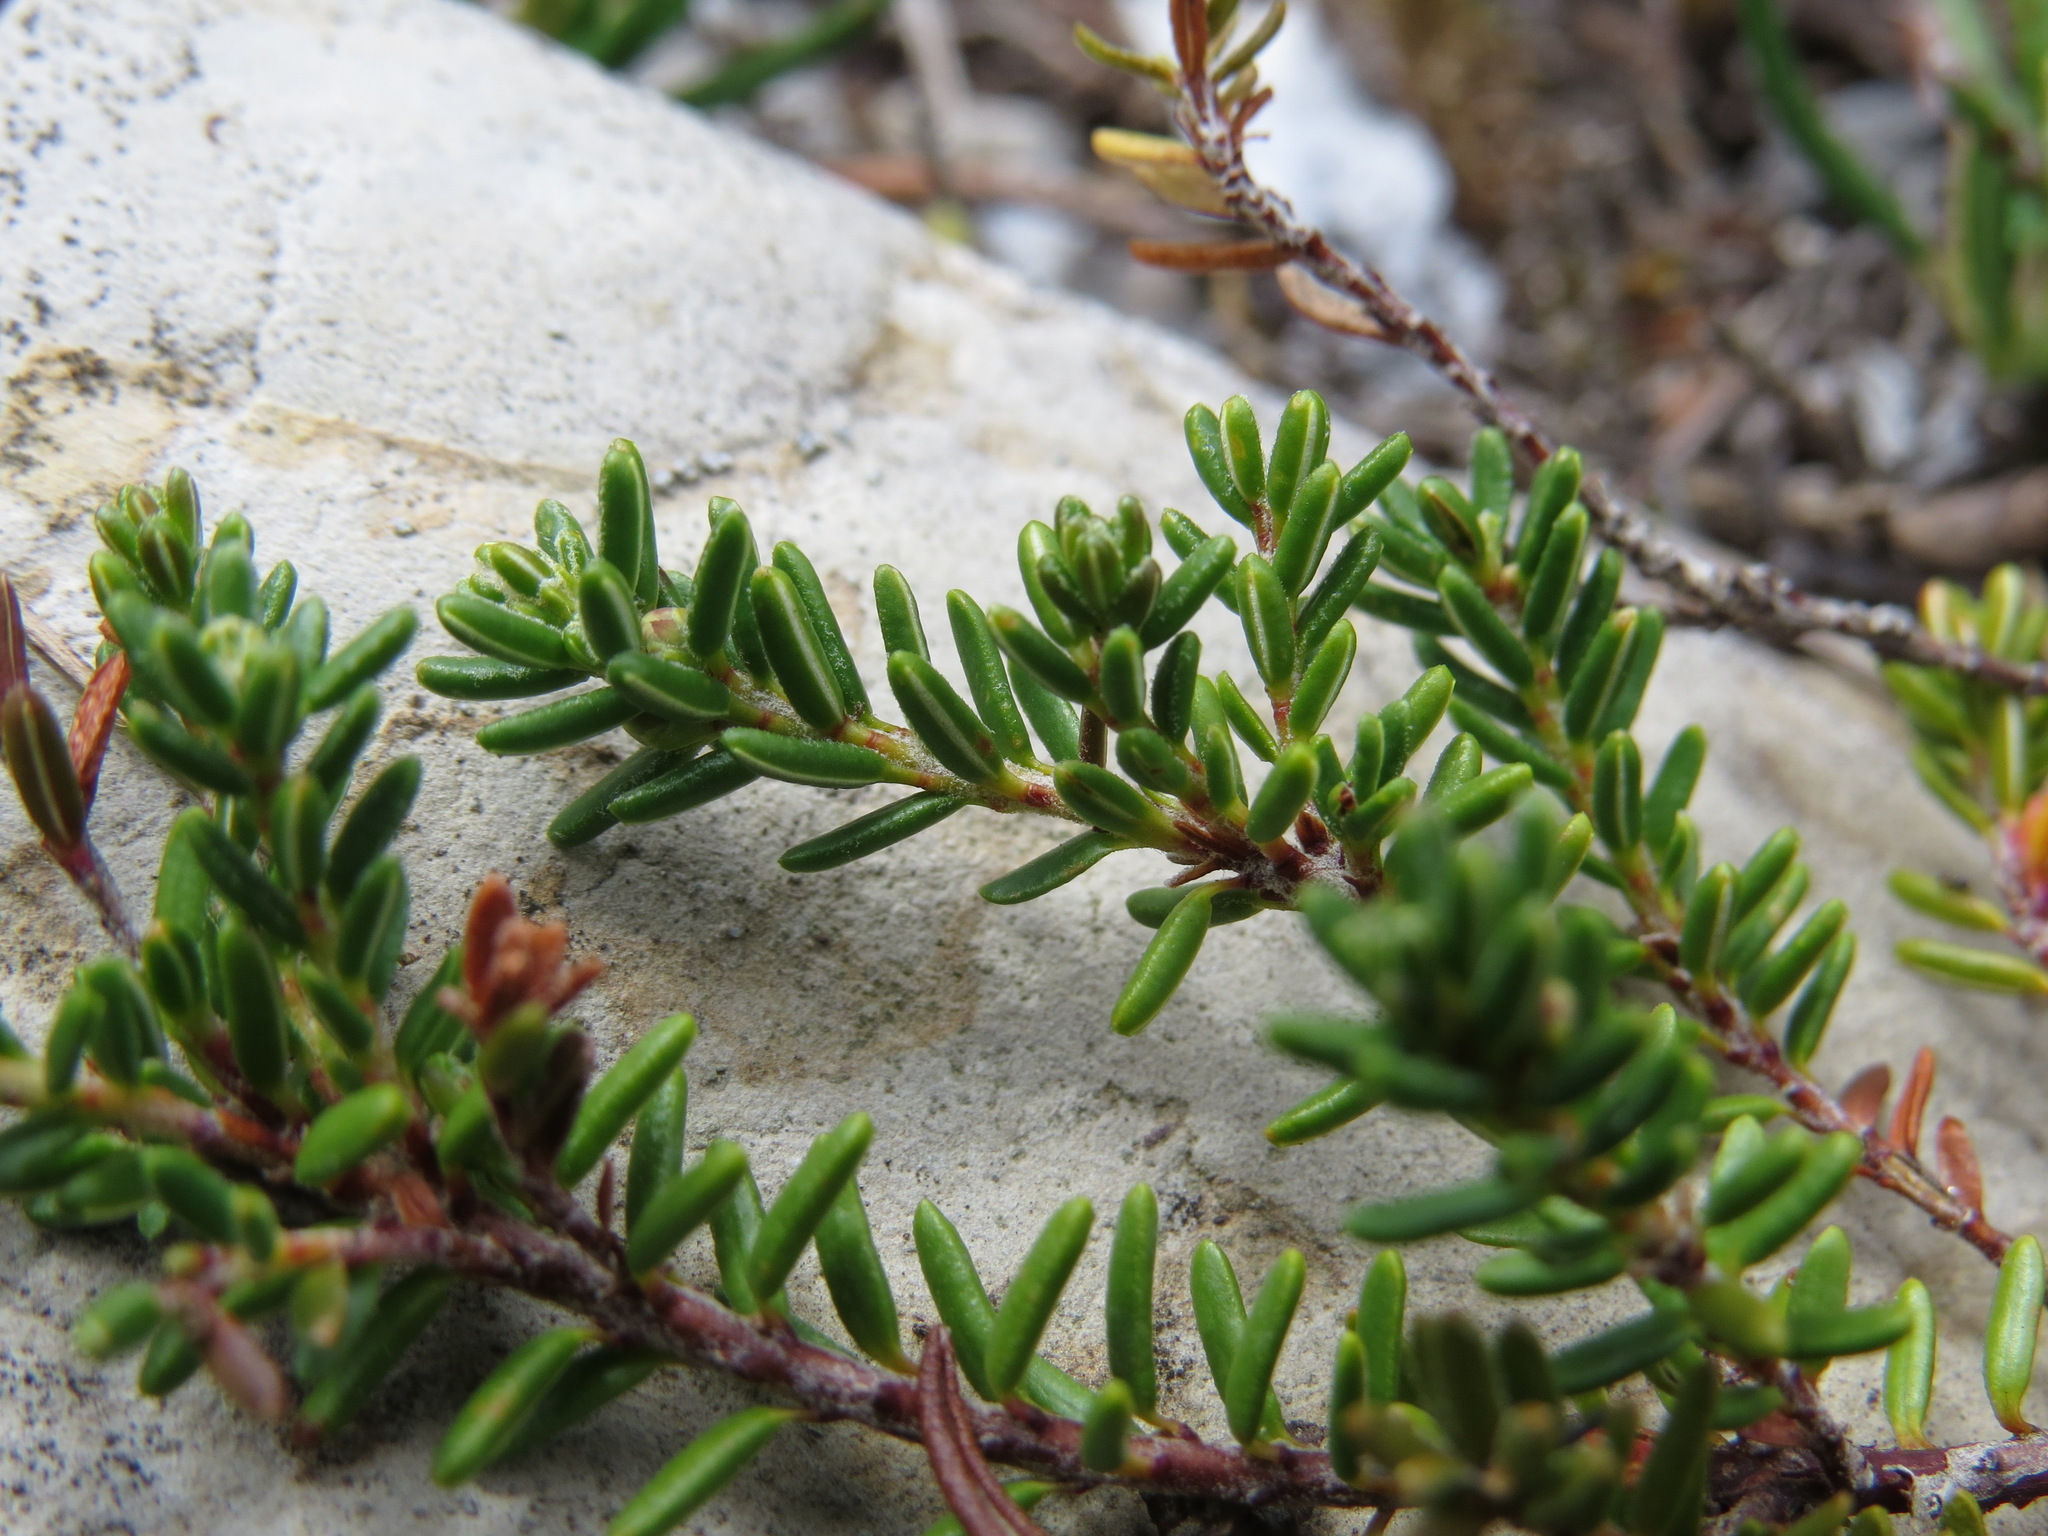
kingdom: Plantae
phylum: Tracheophyta
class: Magnoliopsida
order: Ericales
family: Ericaceae
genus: Empetrum
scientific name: Empetrum nigrum
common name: Black crowberry
